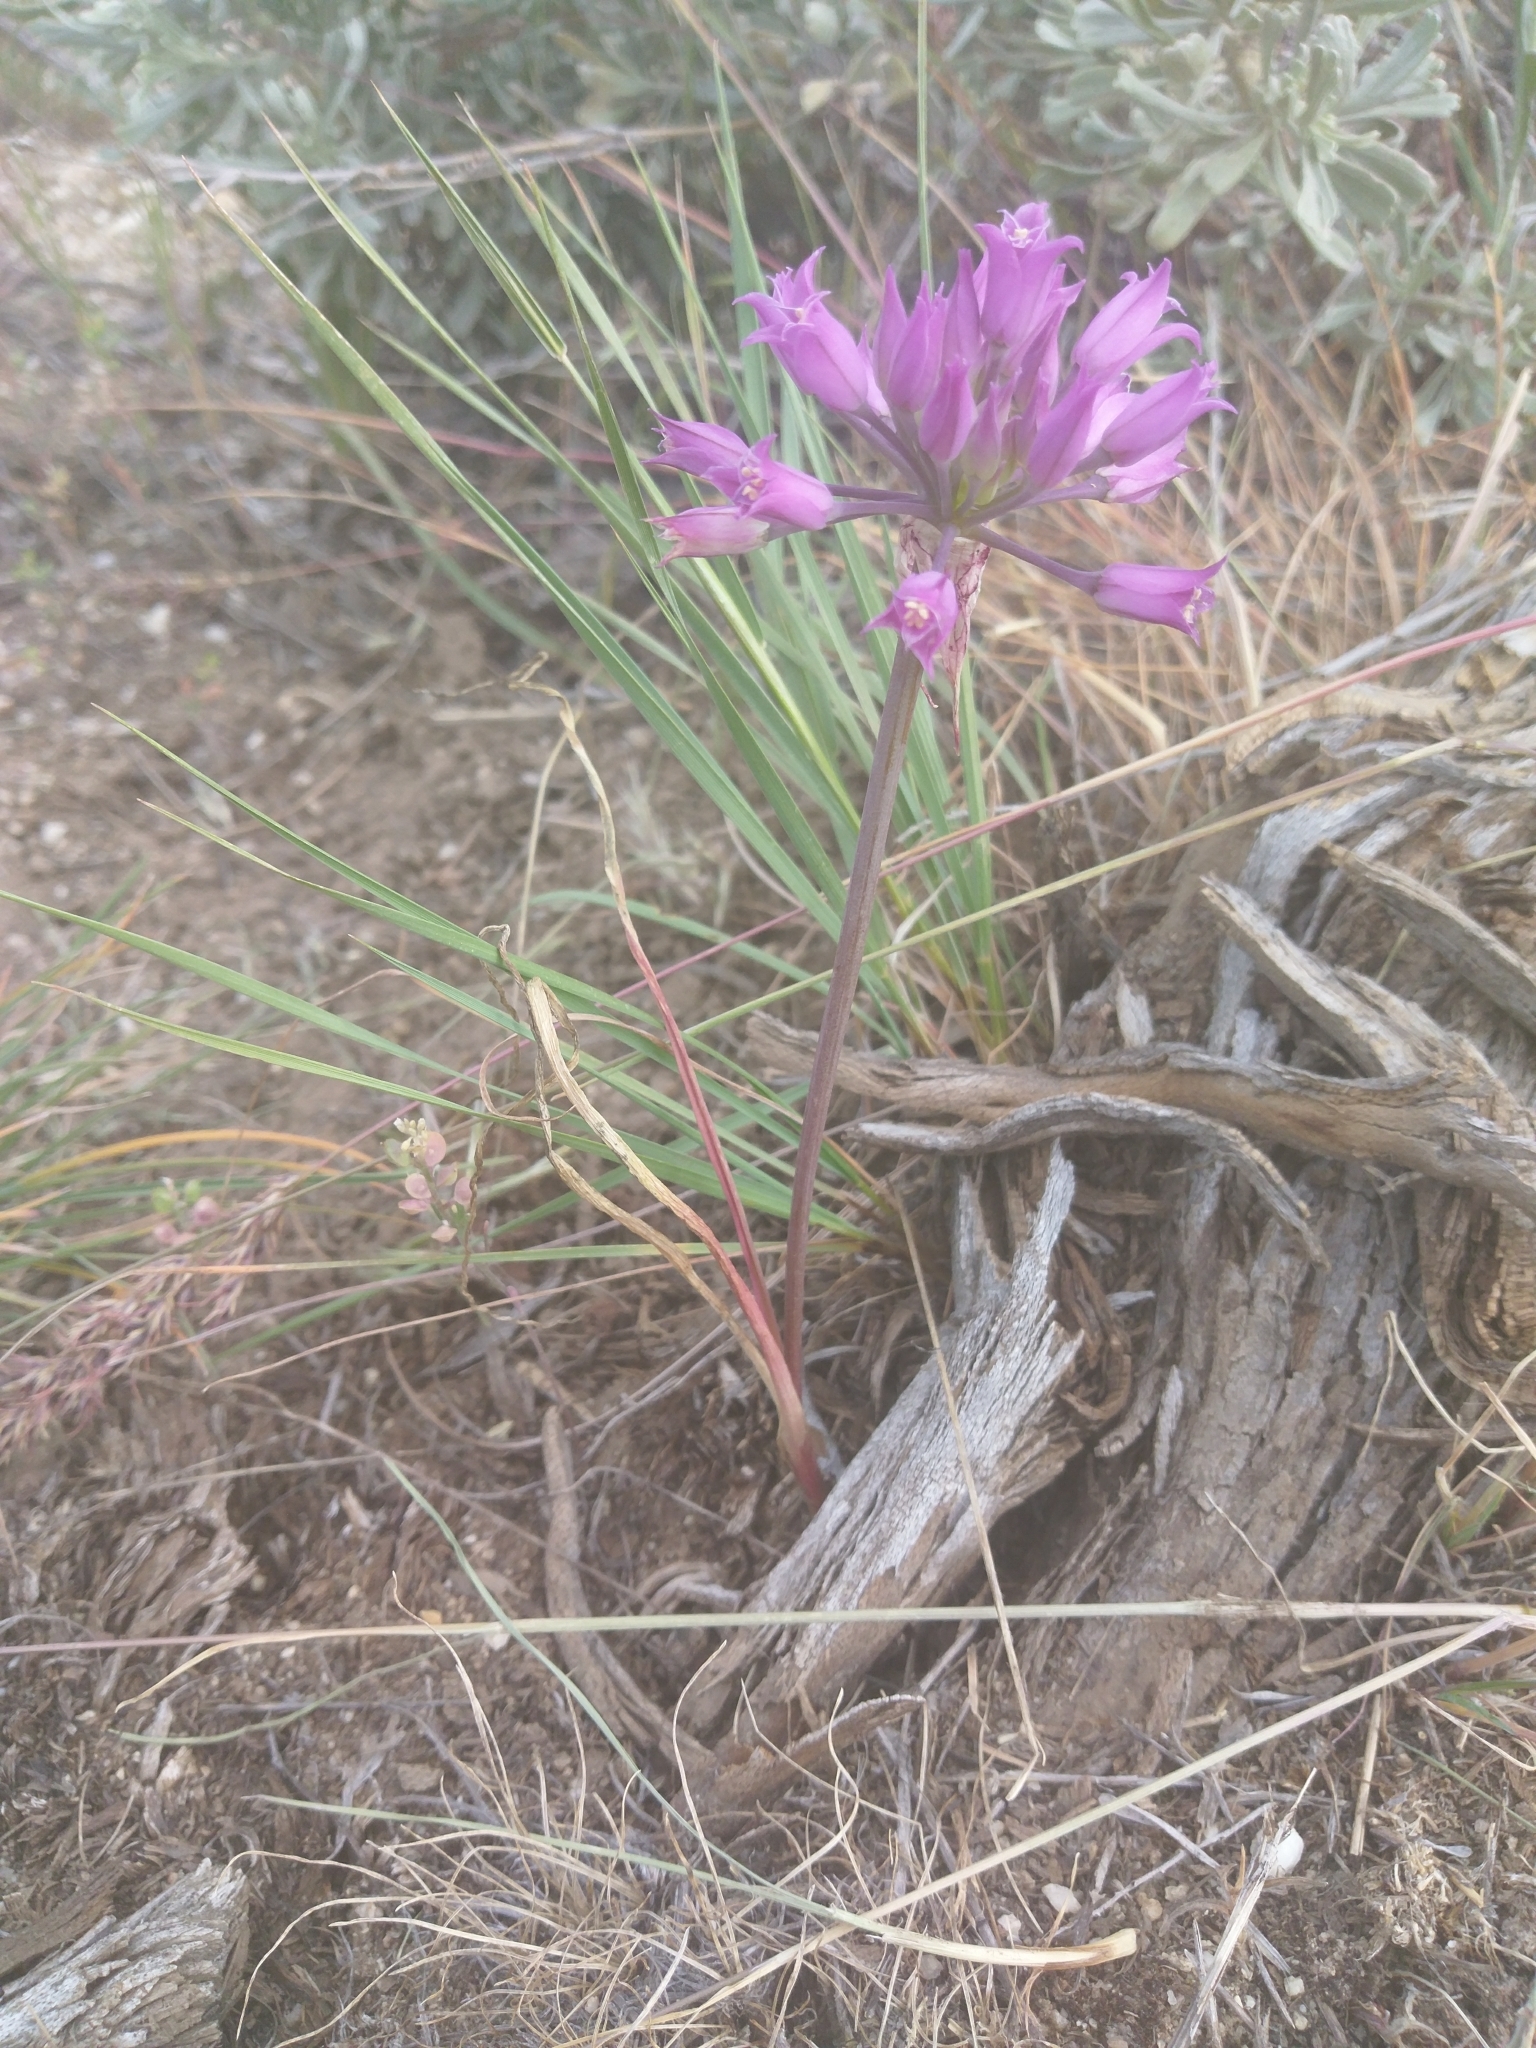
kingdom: Plantae
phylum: Tracheophyta
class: Liliopsida
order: Asparagales
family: Amaryllidaceae
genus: Allium
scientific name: Allium acuminatum
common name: Hooker's onion
